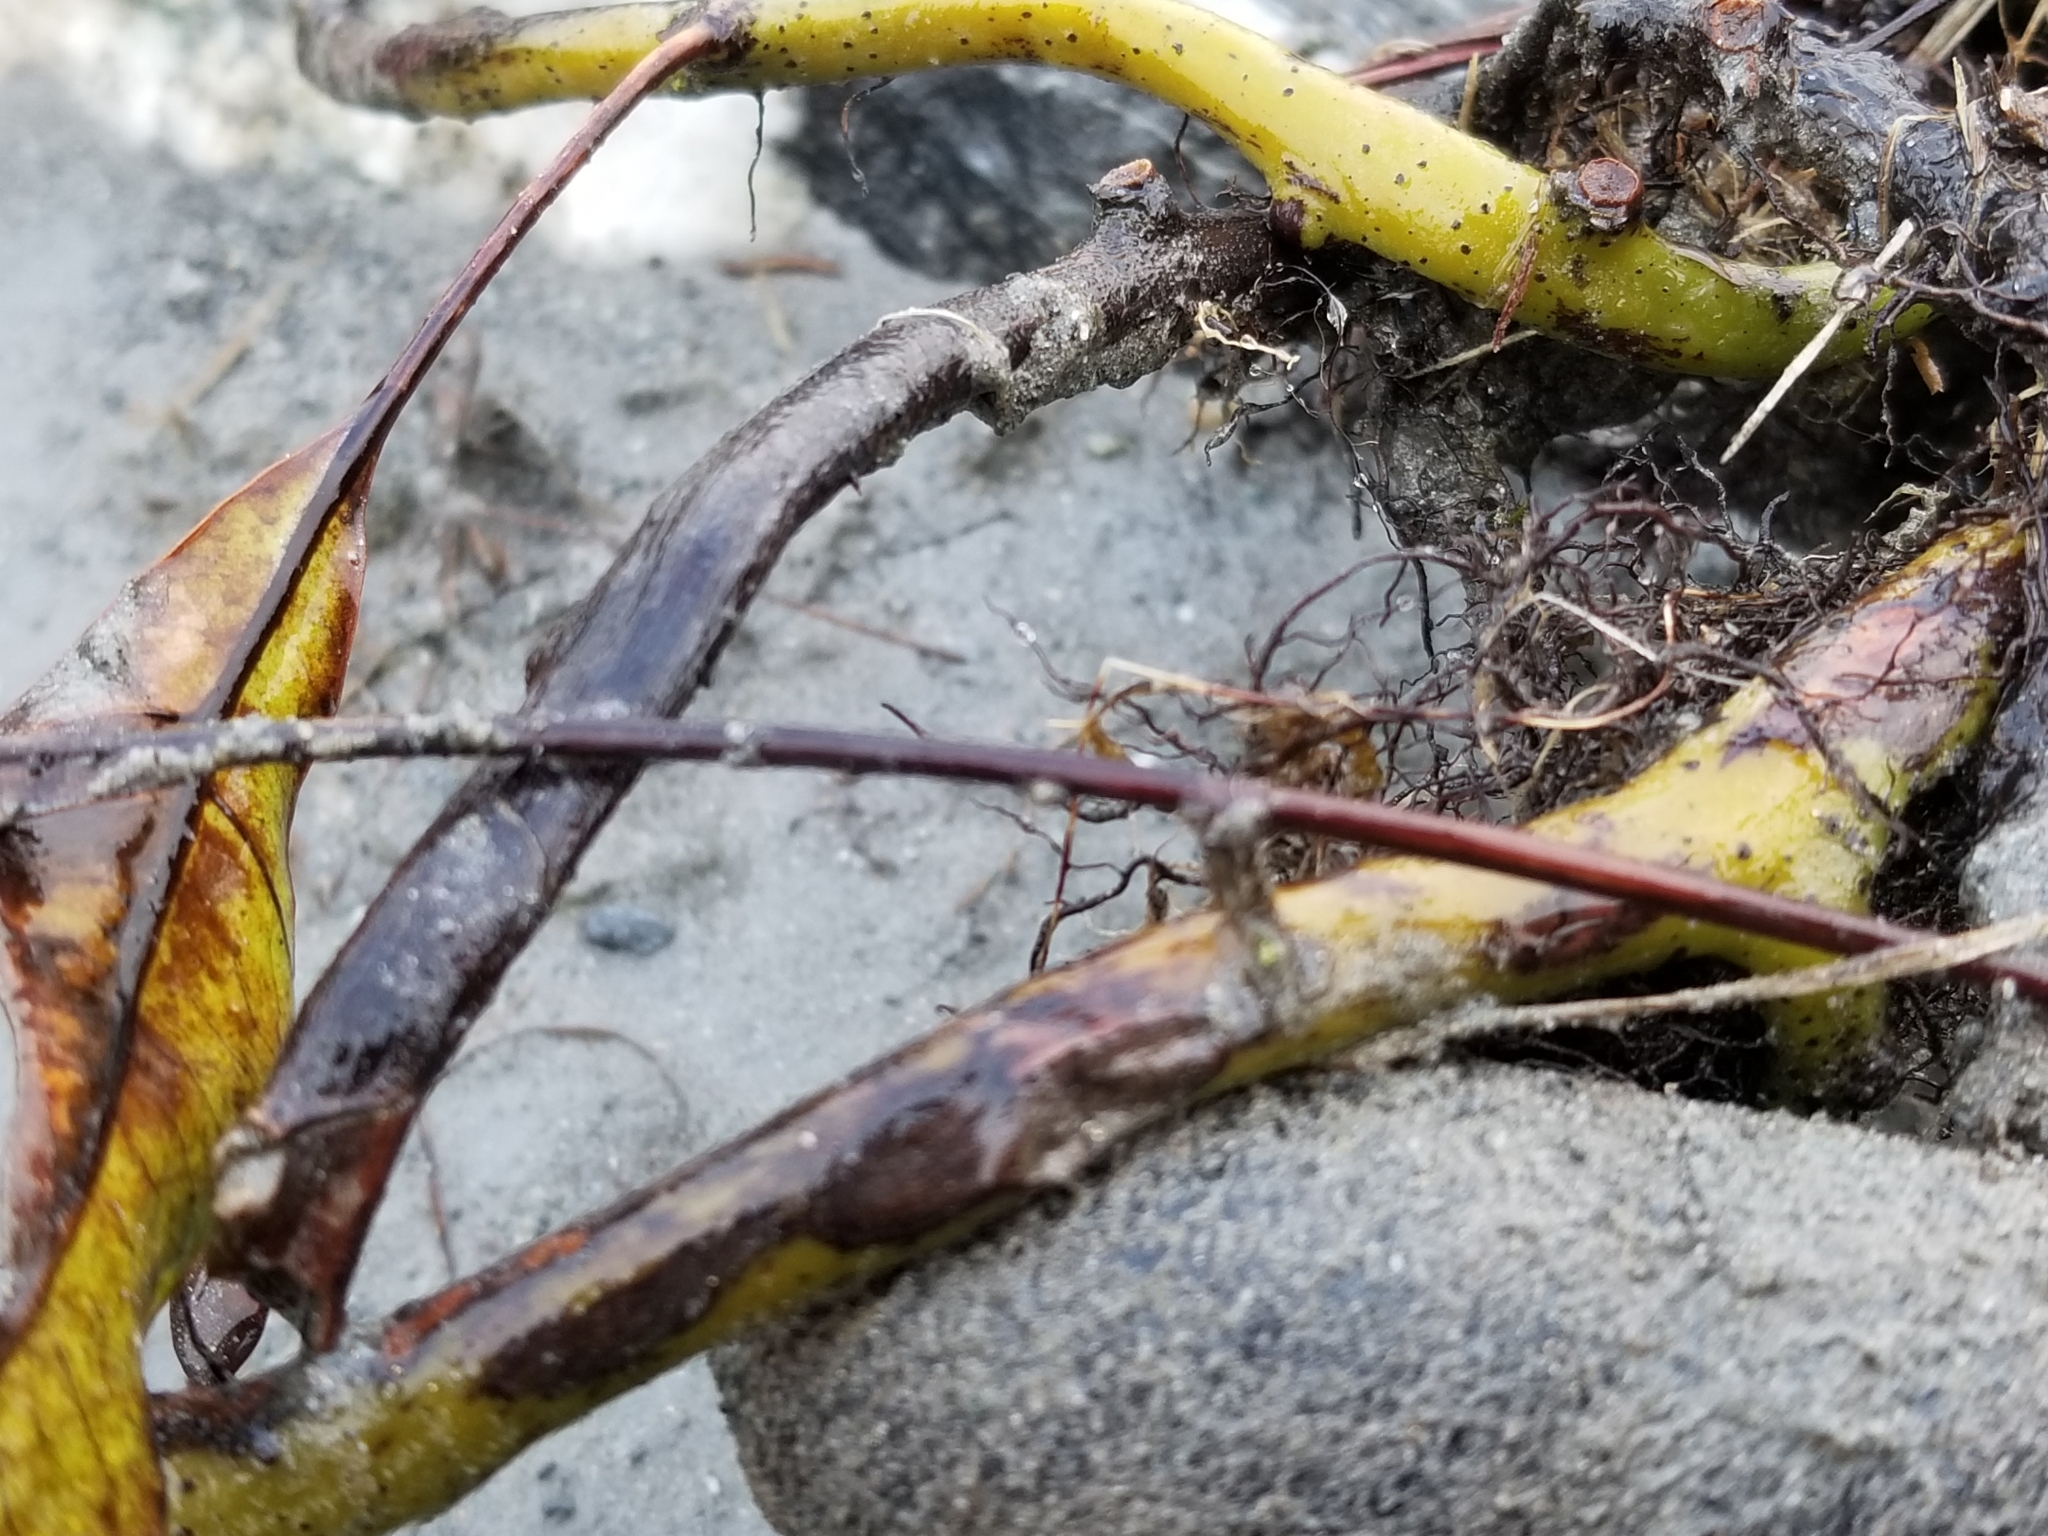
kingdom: Plantae
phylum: Tracheophyta
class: Polypodiopsida
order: Polypodiales
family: Polypodiaceae
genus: Lecanopteris
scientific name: Lecanopteris pustulata
